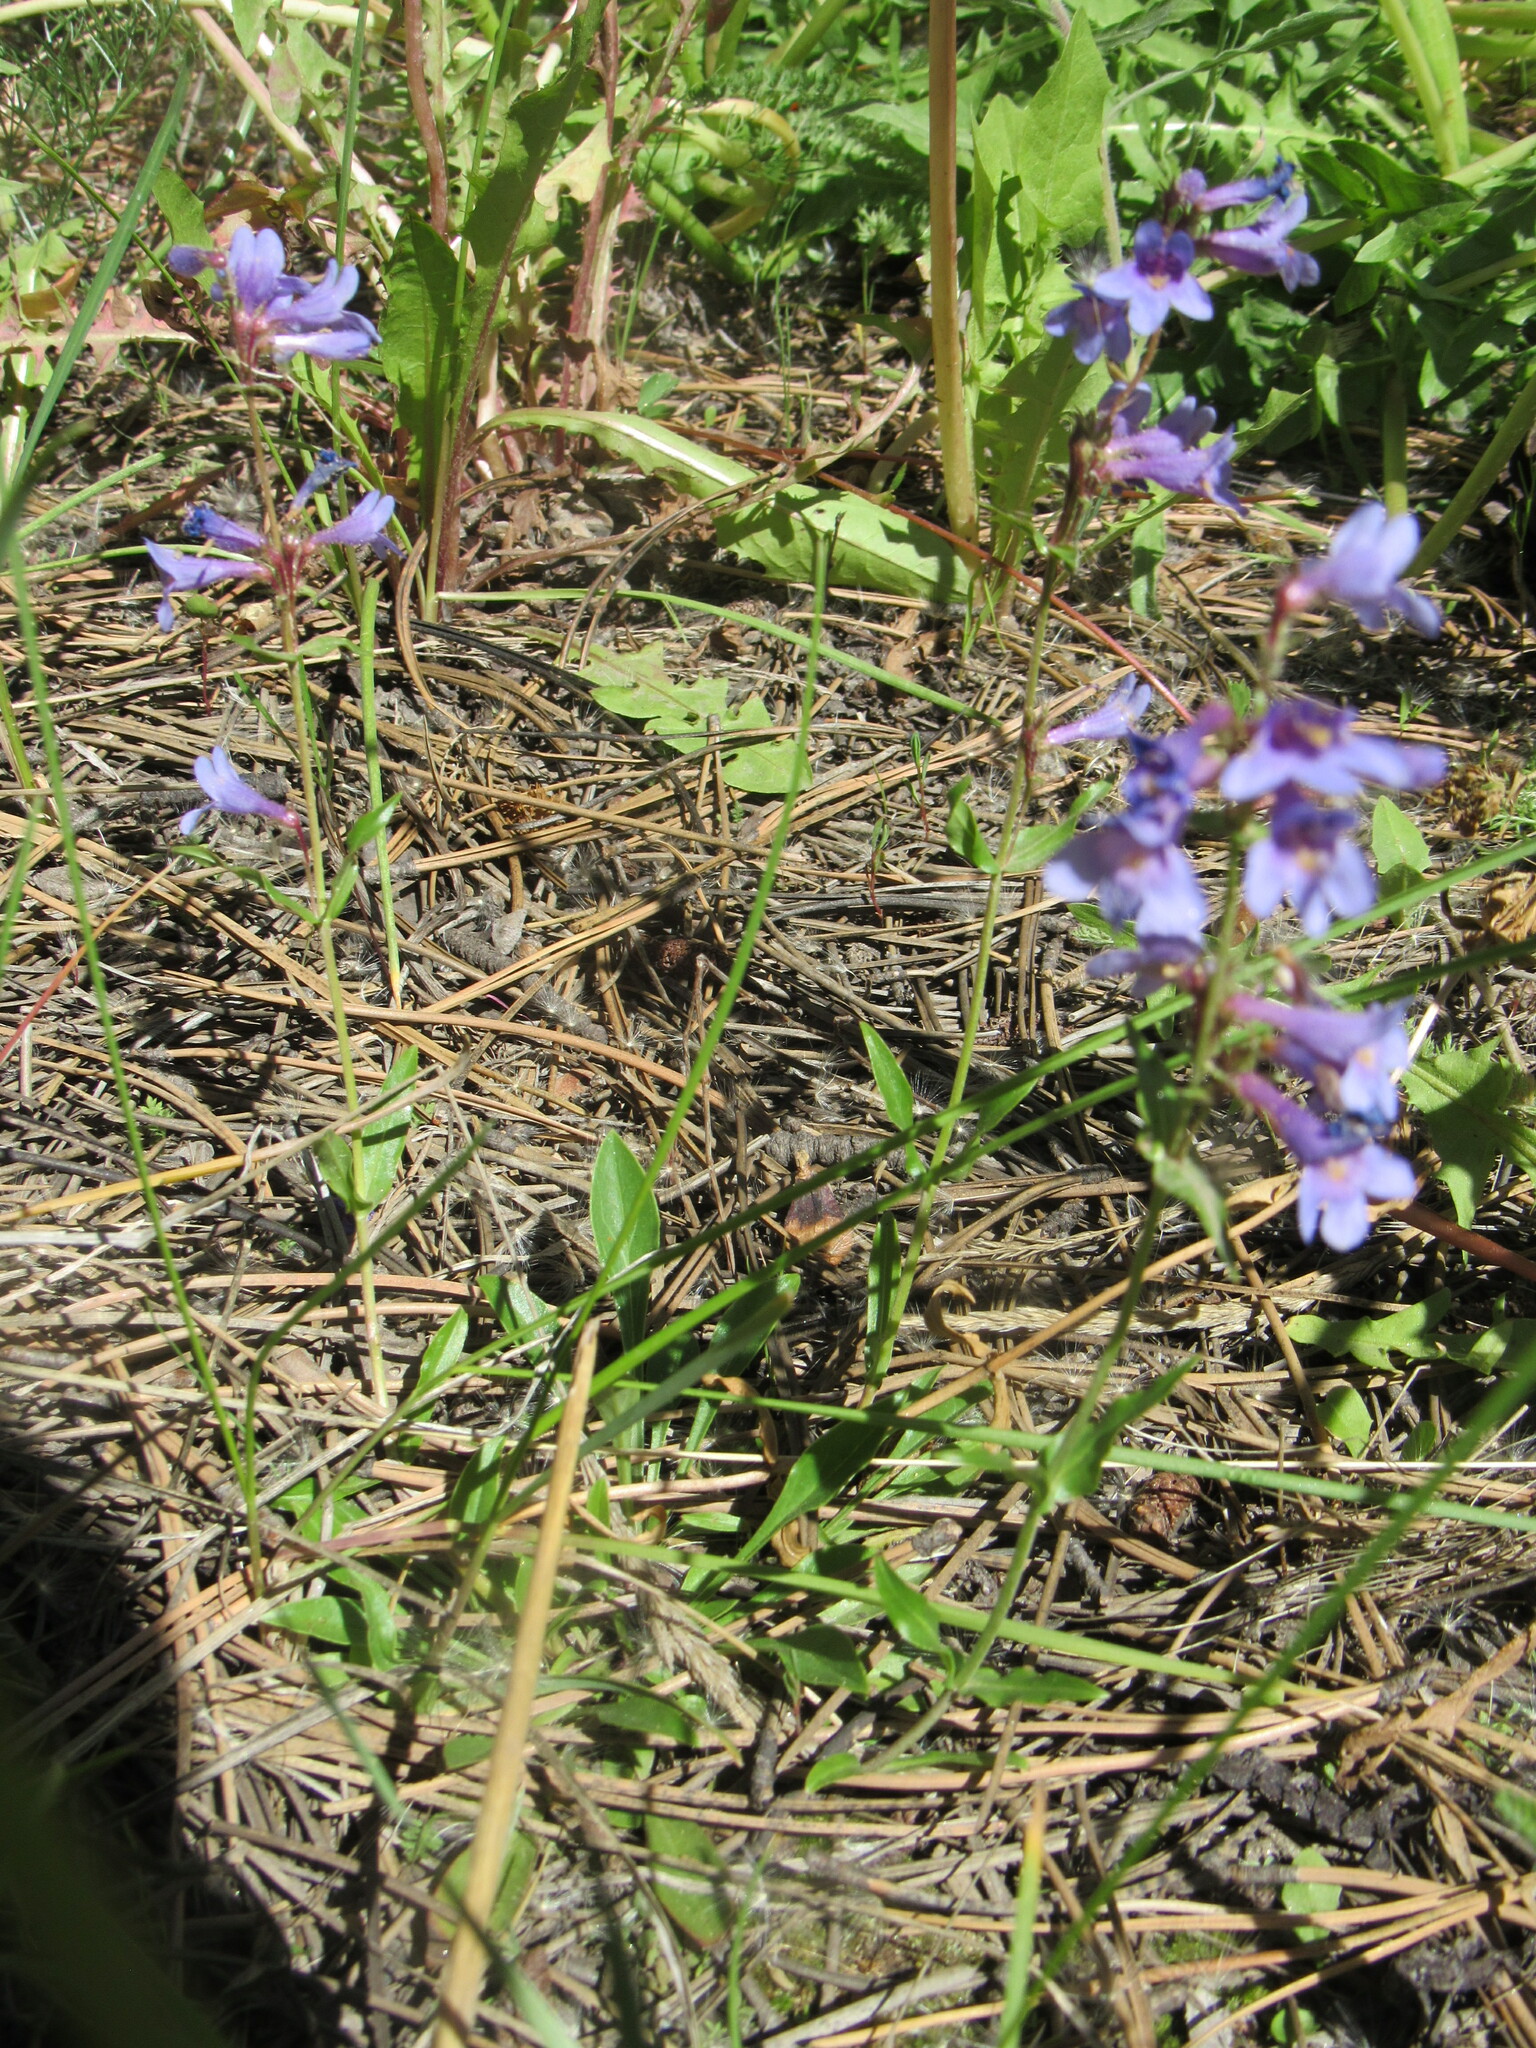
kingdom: Plantae
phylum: Tracheophyta
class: Magnoliopsida
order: Lamiales
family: Plantaginaceae
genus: Penstemon
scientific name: Penstemon virens
